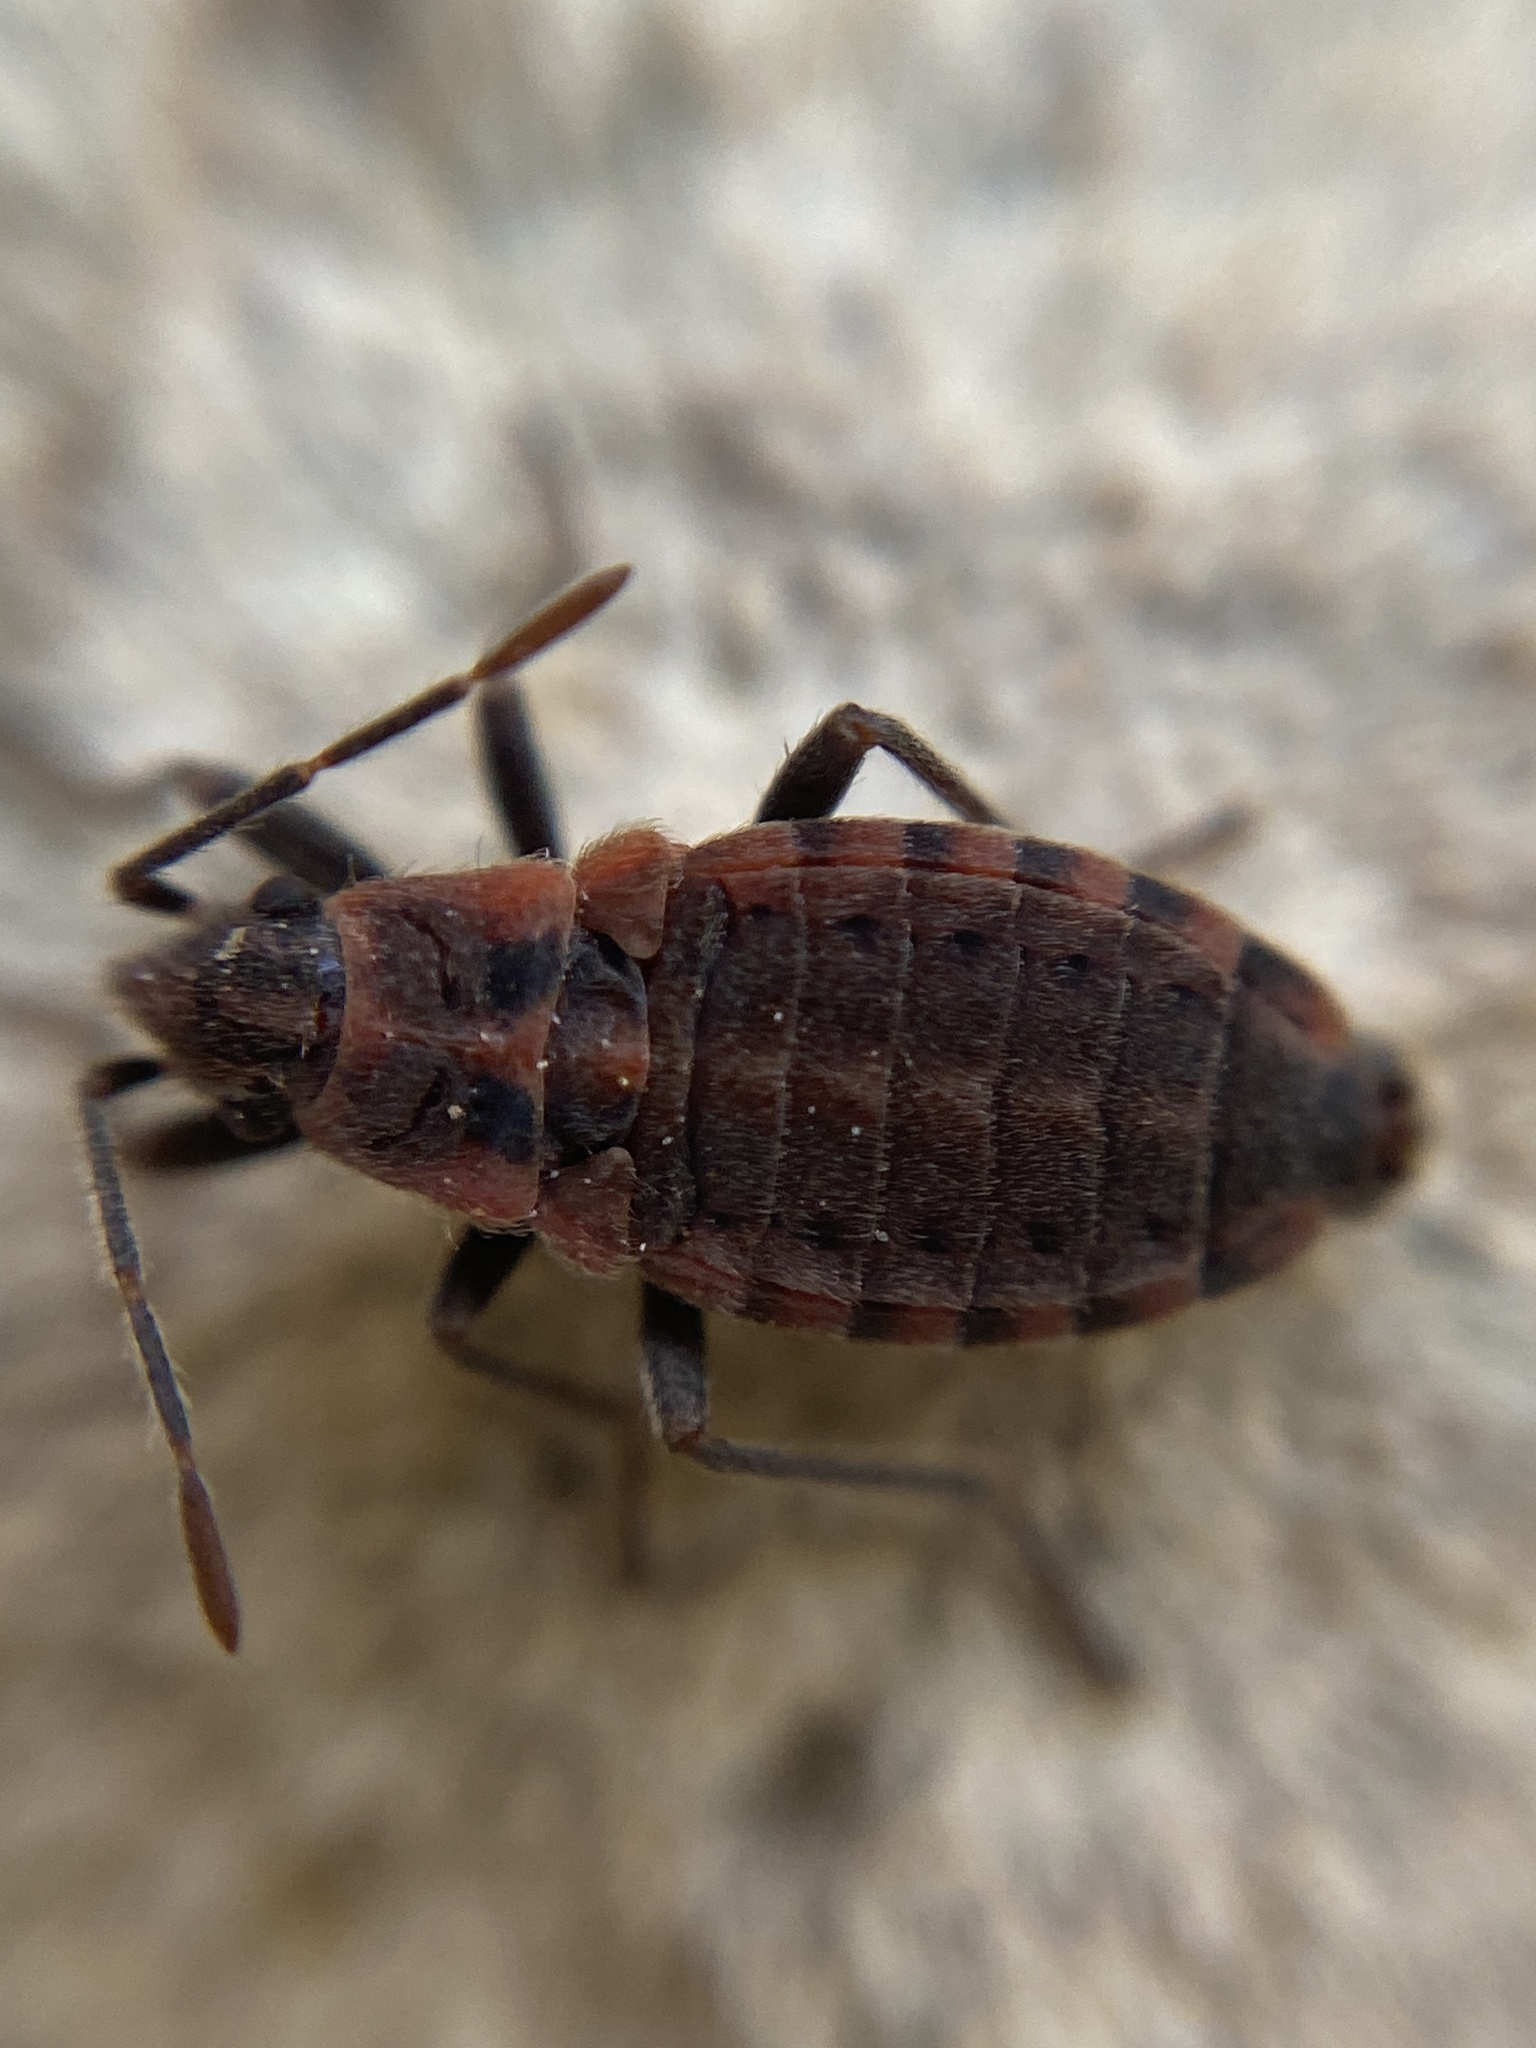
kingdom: Animalia
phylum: Arthropoda
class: Insecta
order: Hemiptera
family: Lygaeidae
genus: Apterola
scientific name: Apterola kunckeli
